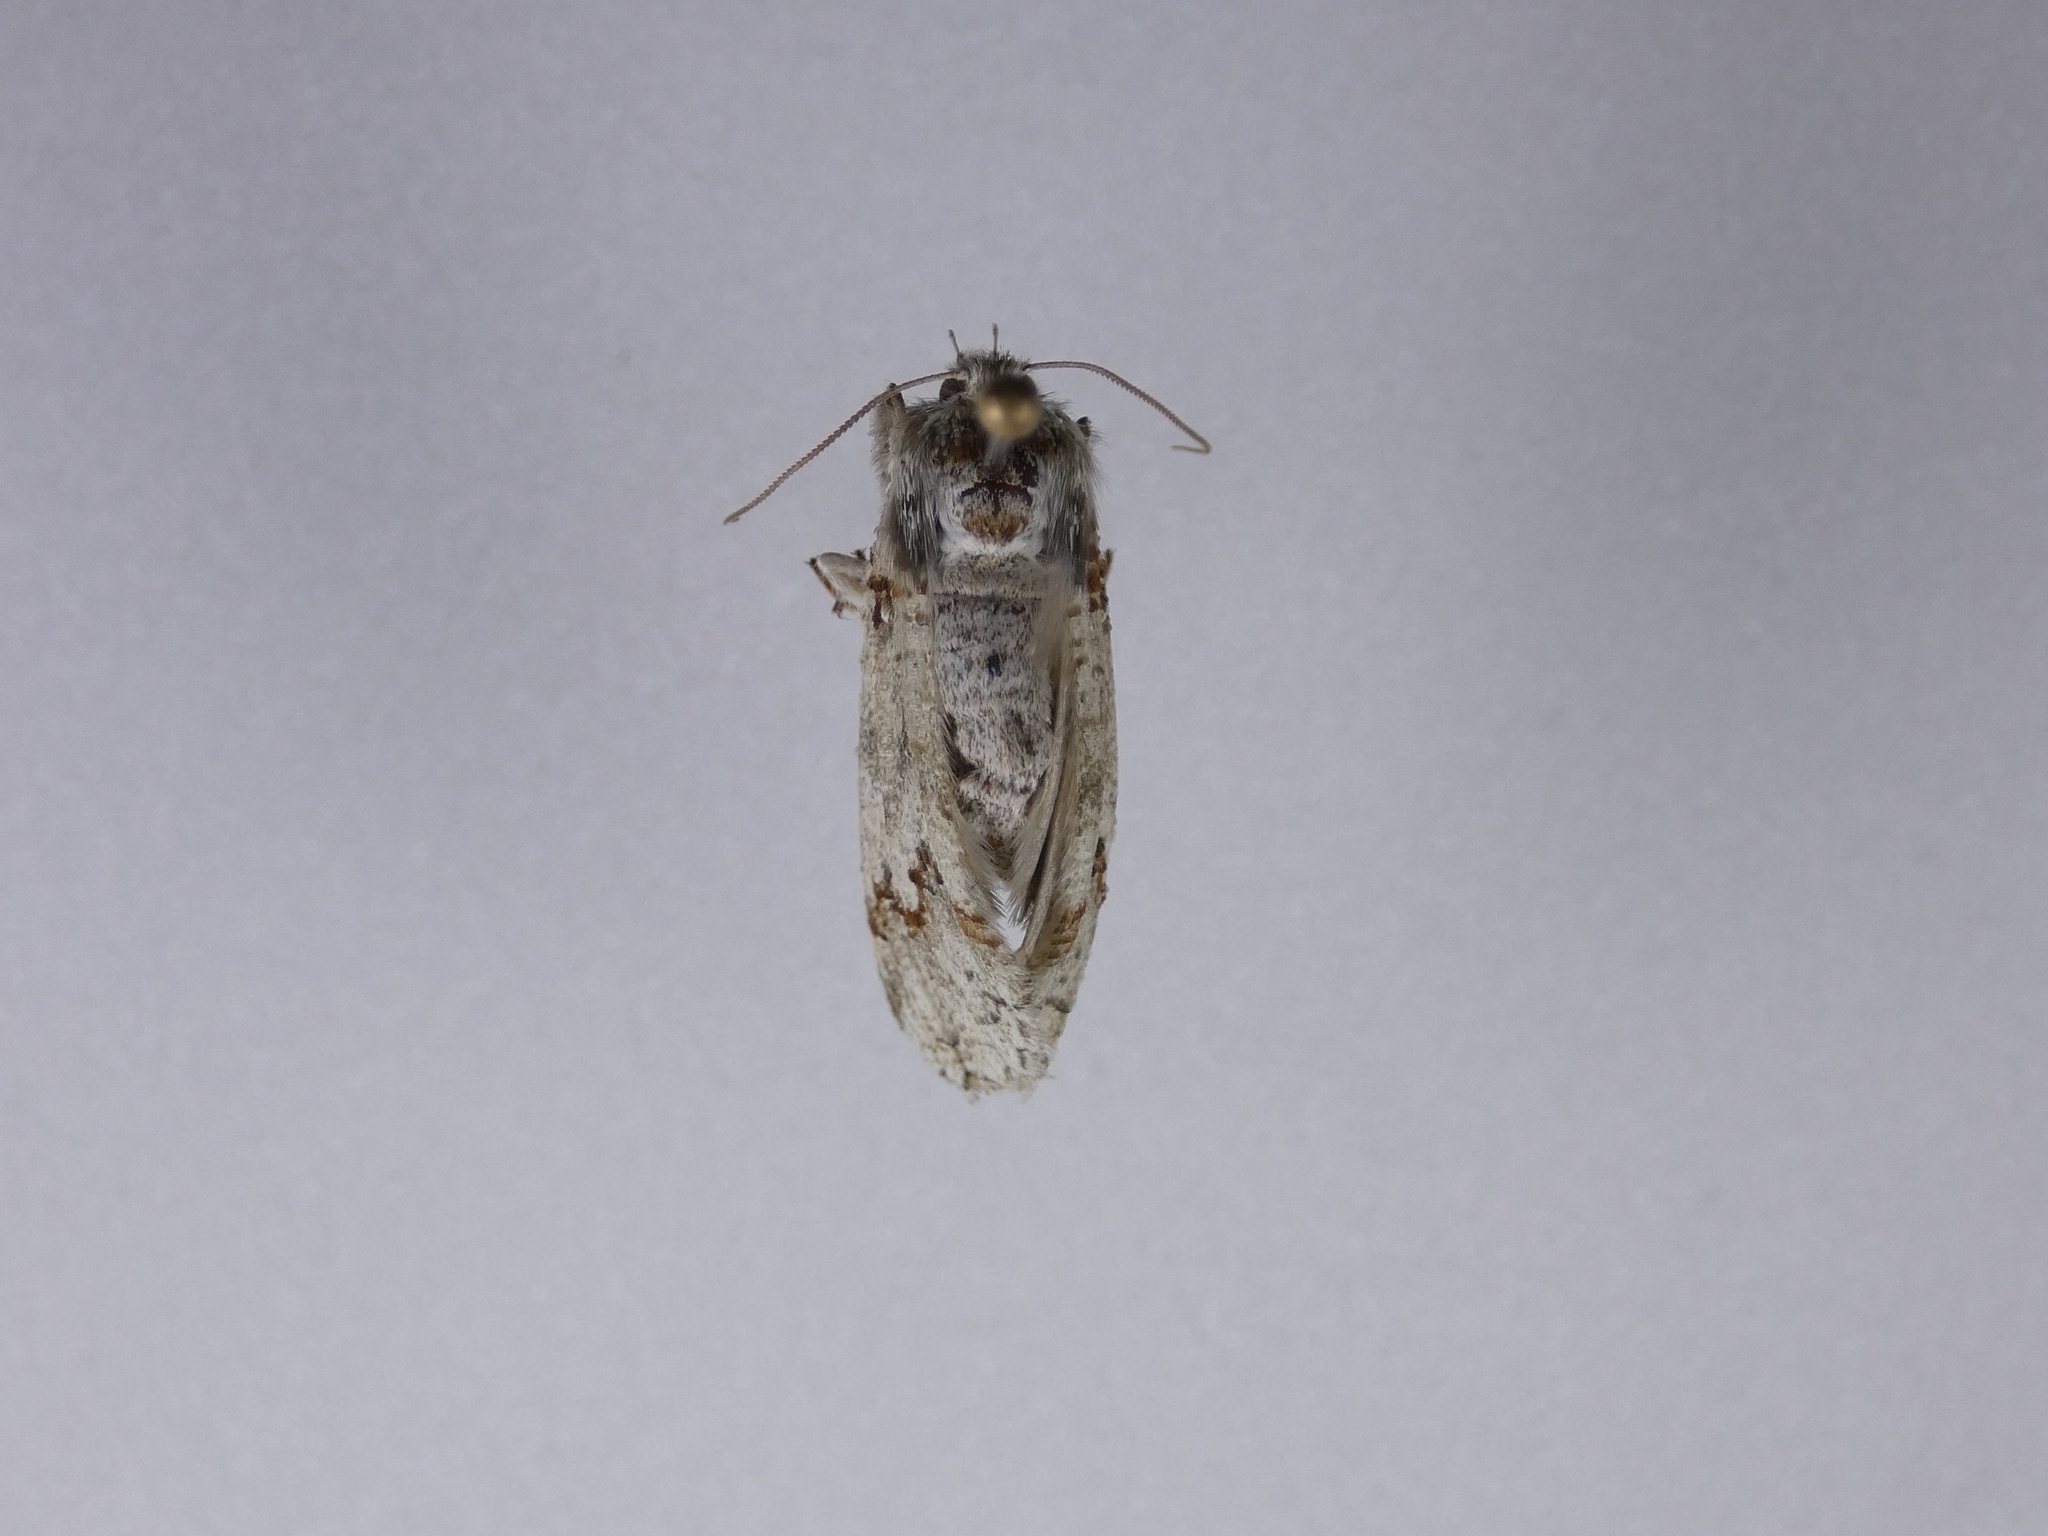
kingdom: Animalia
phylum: Arthropoda
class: Insecta
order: Lepidoptera
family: Geometridae
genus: Declana
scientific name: Declana floccosa
